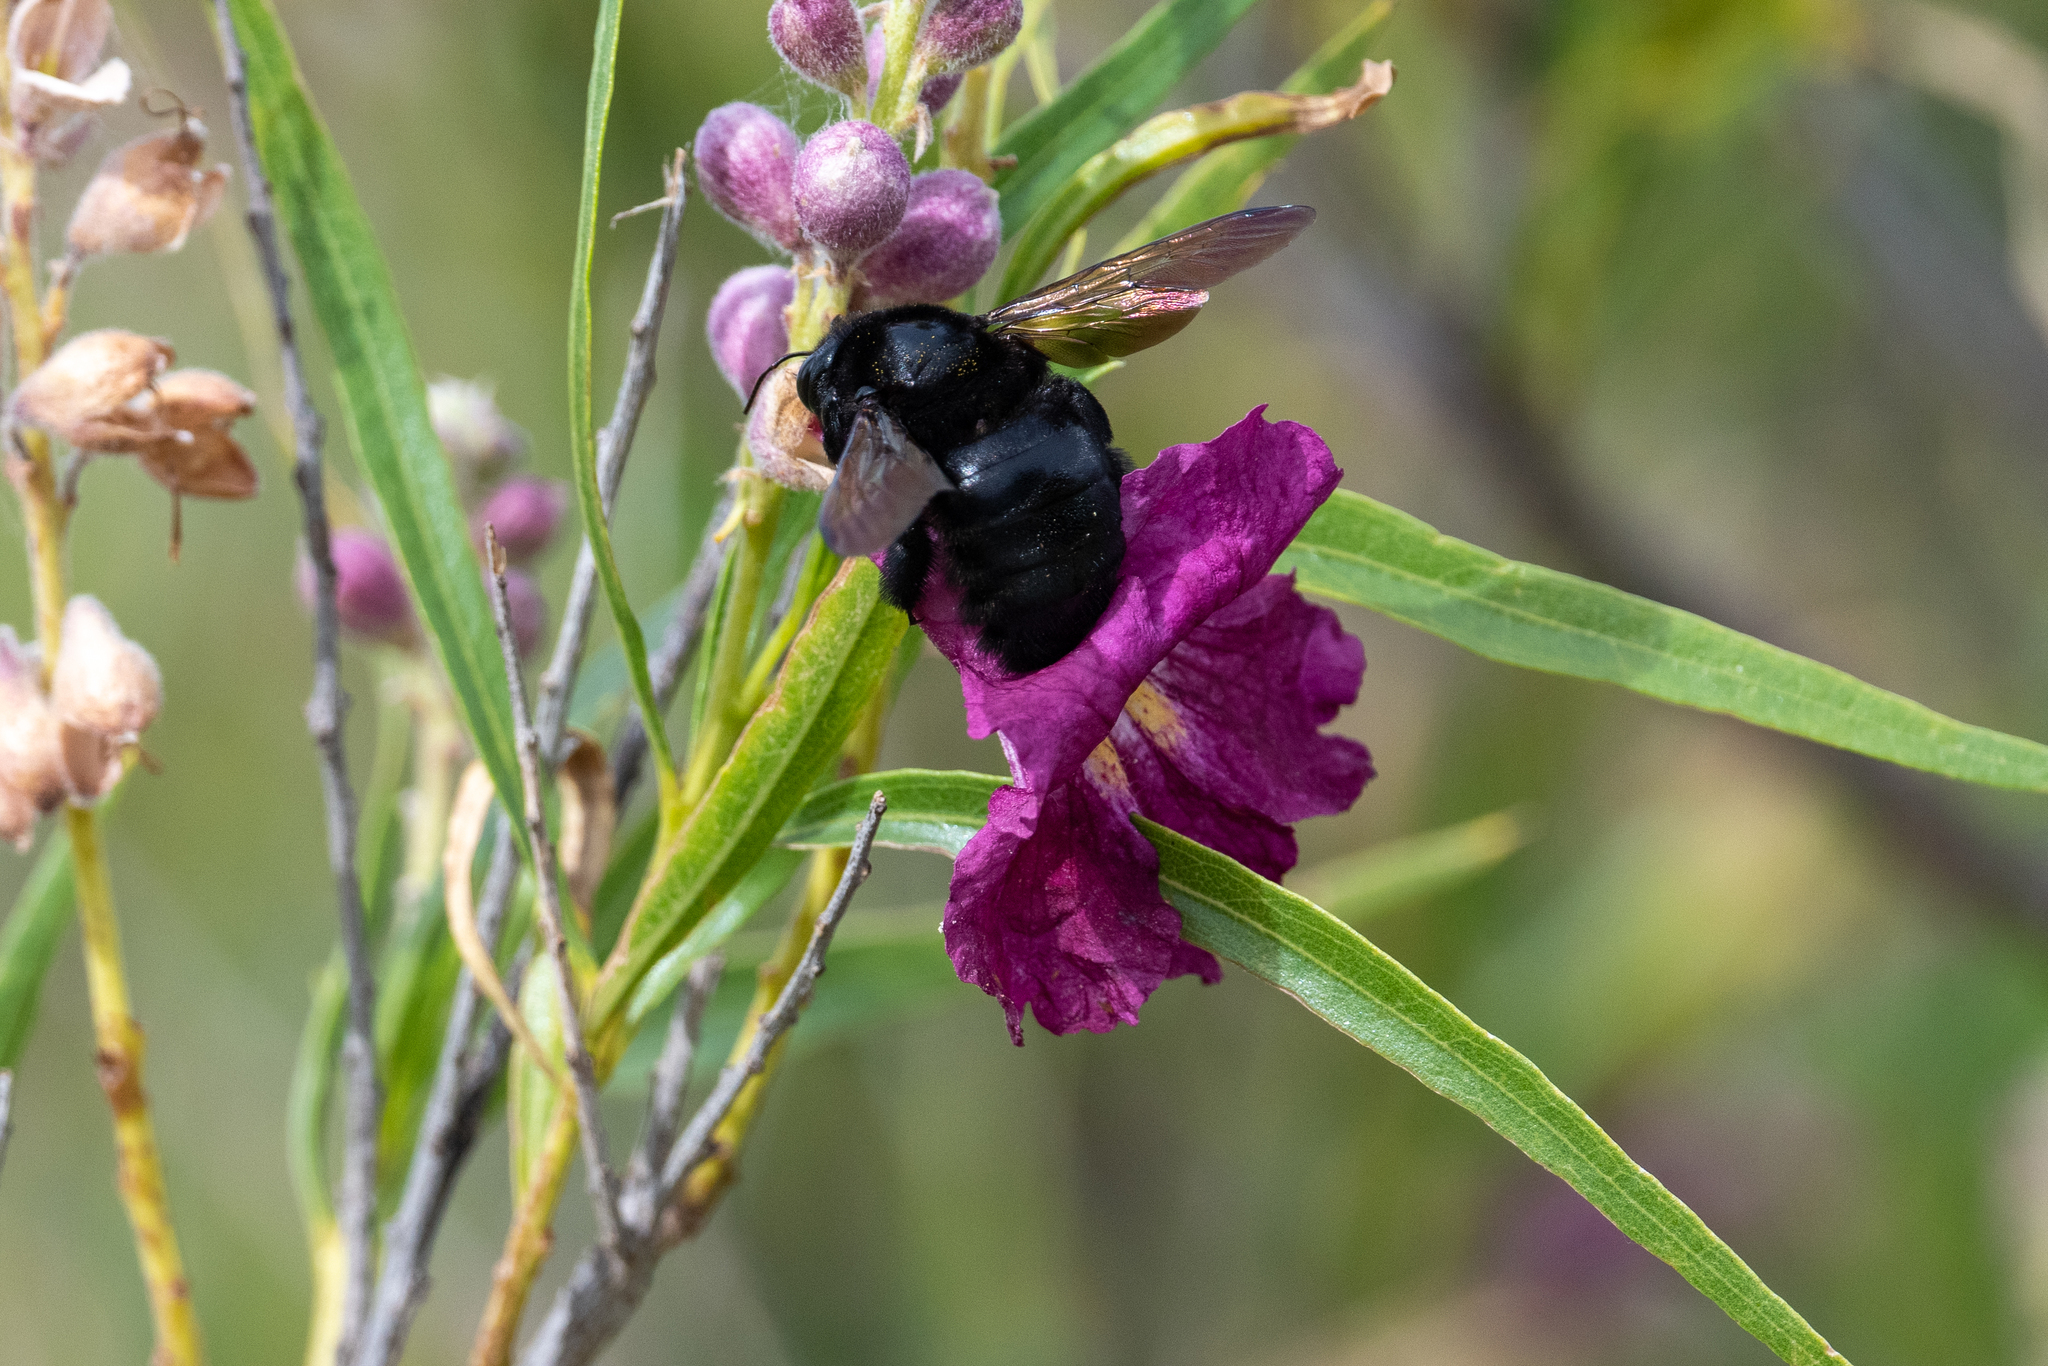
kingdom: Animalia
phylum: Arthropoda
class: Insecta
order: Hymenoptera
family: Apidae
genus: Xylocopa
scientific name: Xylocopa sonorina
